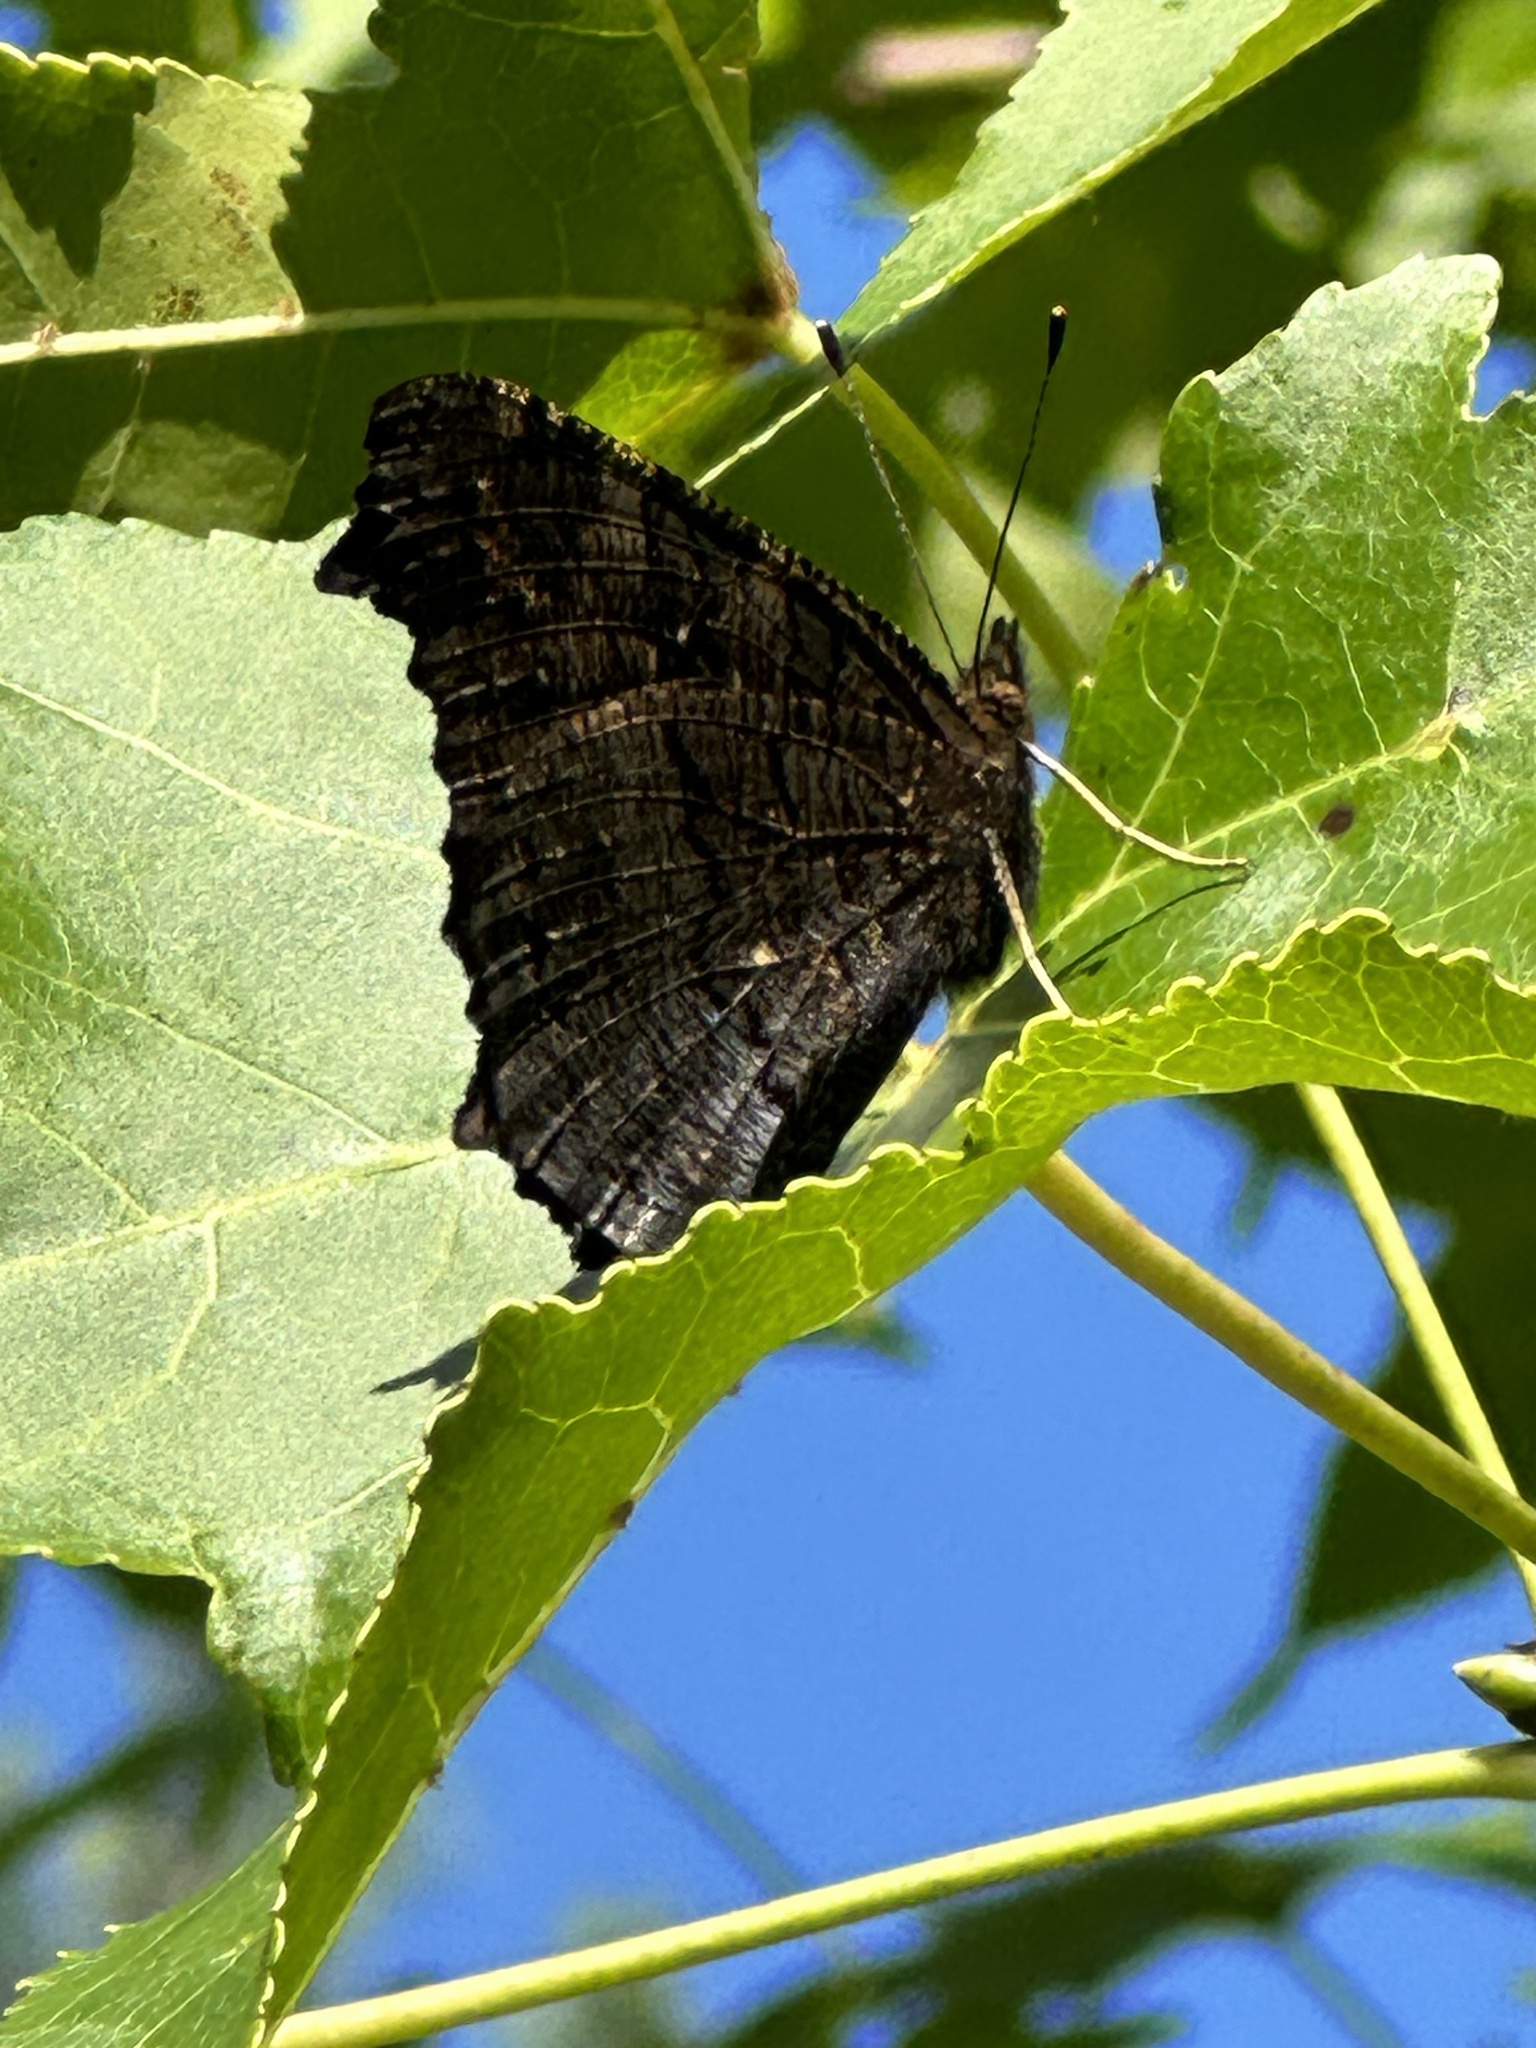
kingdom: Animalia
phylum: Arthropoda
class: Insecta
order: Lepidoptera
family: Nymphalidae
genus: Aglais
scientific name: Aglais io
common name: Peacock
